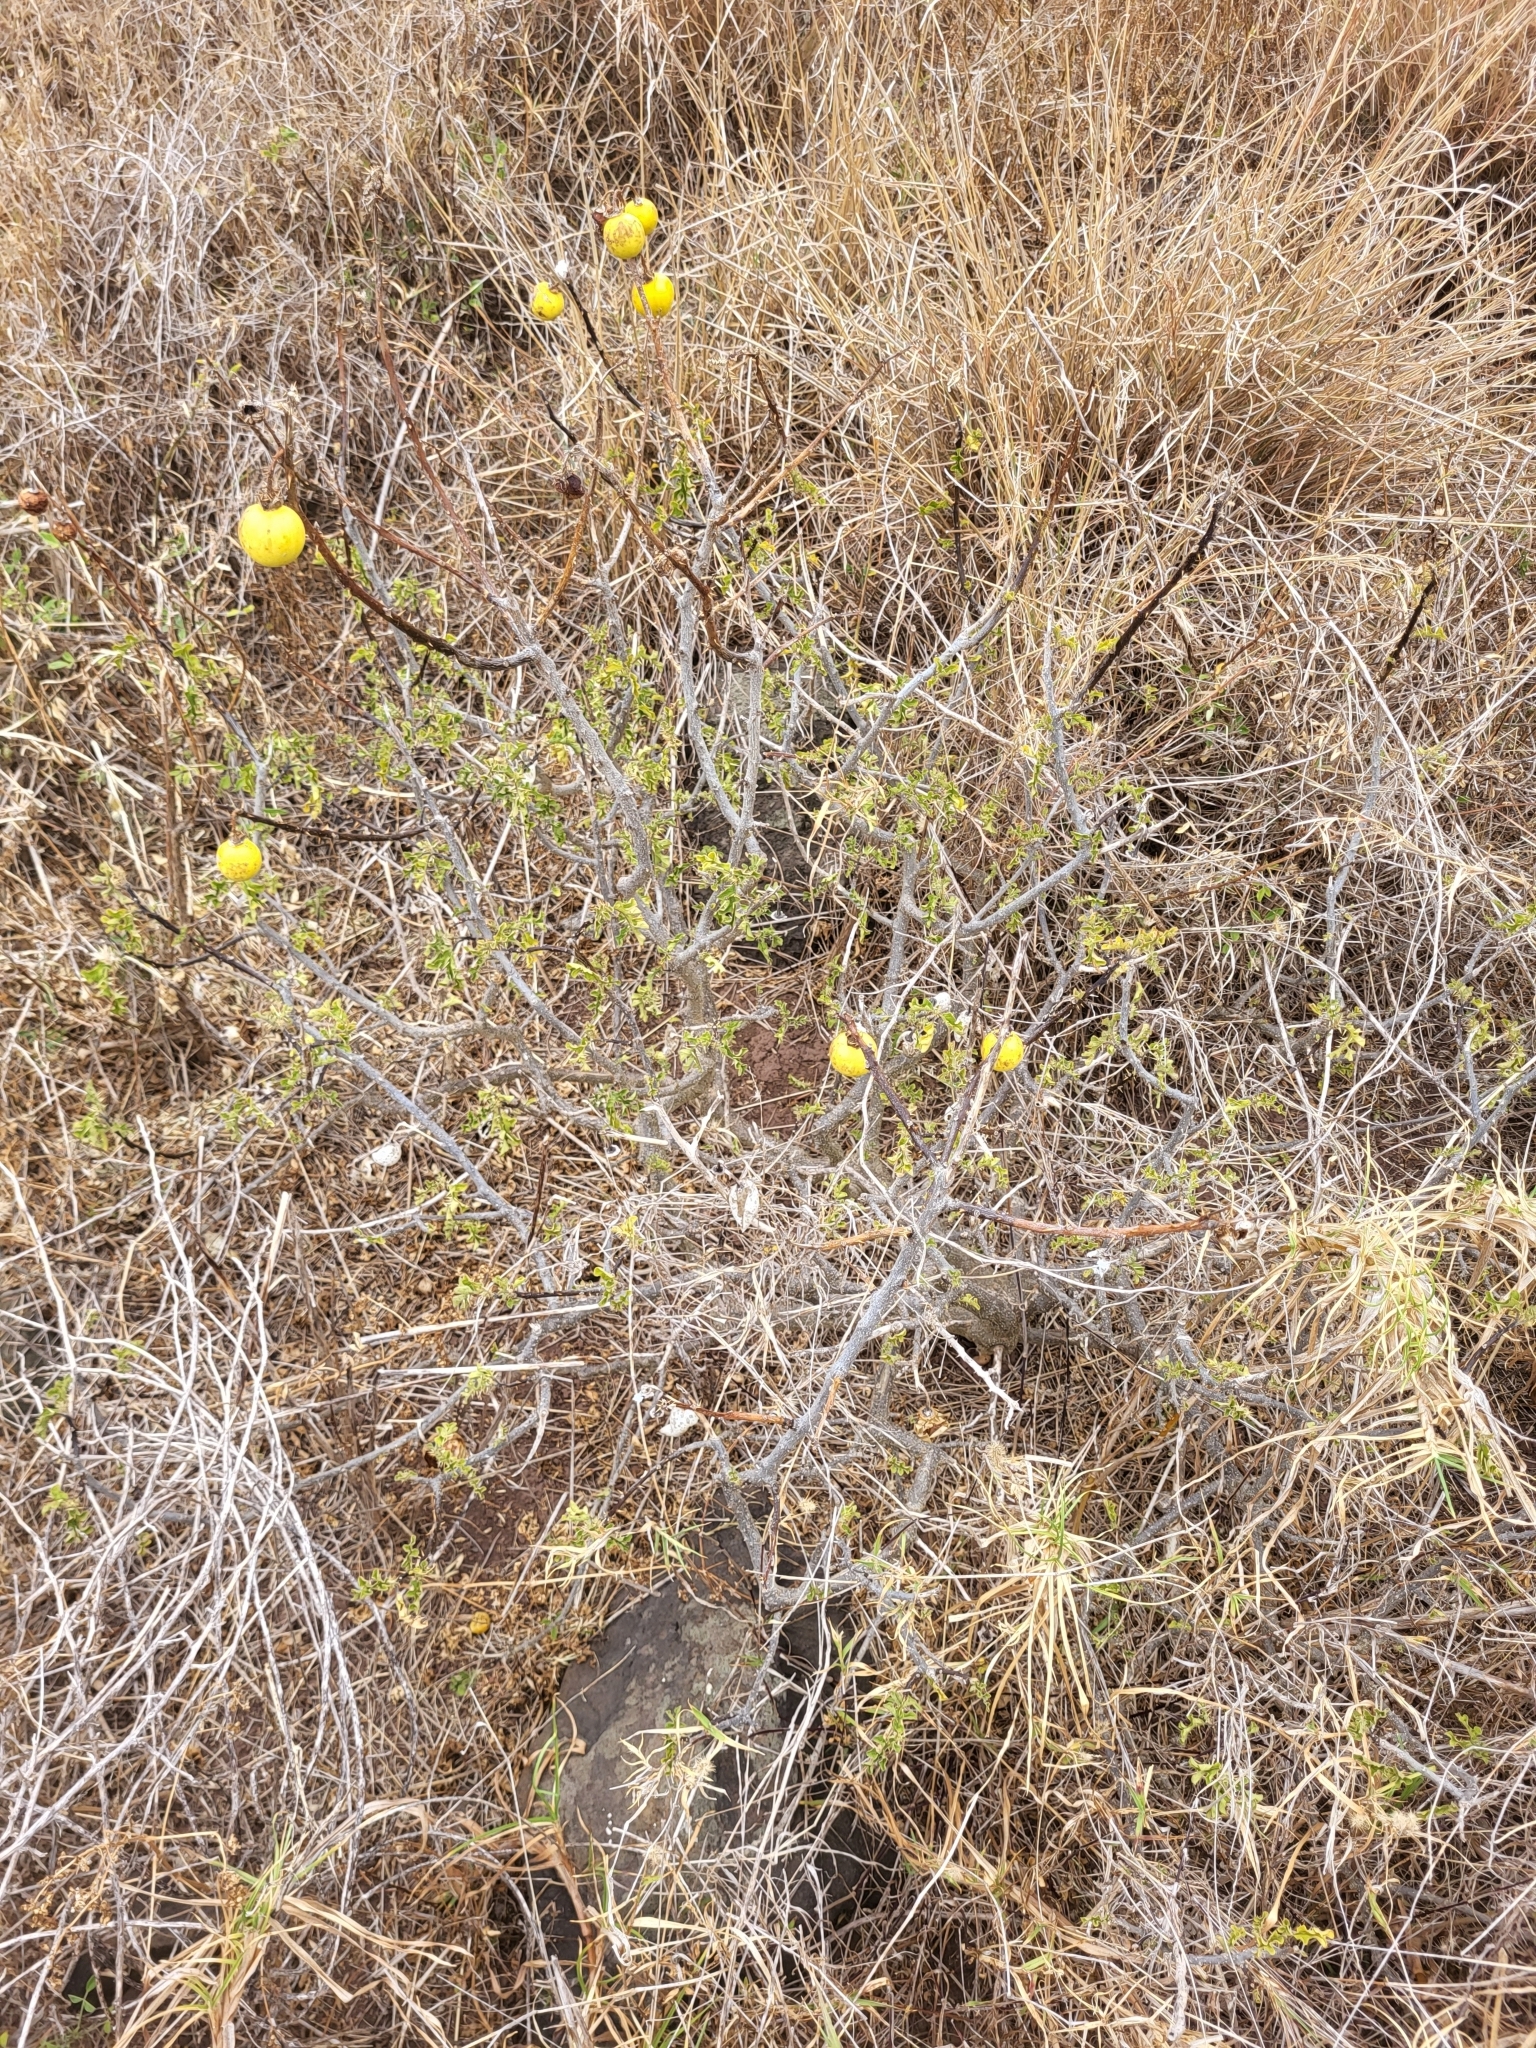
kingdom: Plantae
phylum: Tracheophyta
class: Magnoliopsida
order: Solanales
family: Solanaceae
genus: Solanum
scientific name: Solanum linnaeanum
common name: Nightshade
